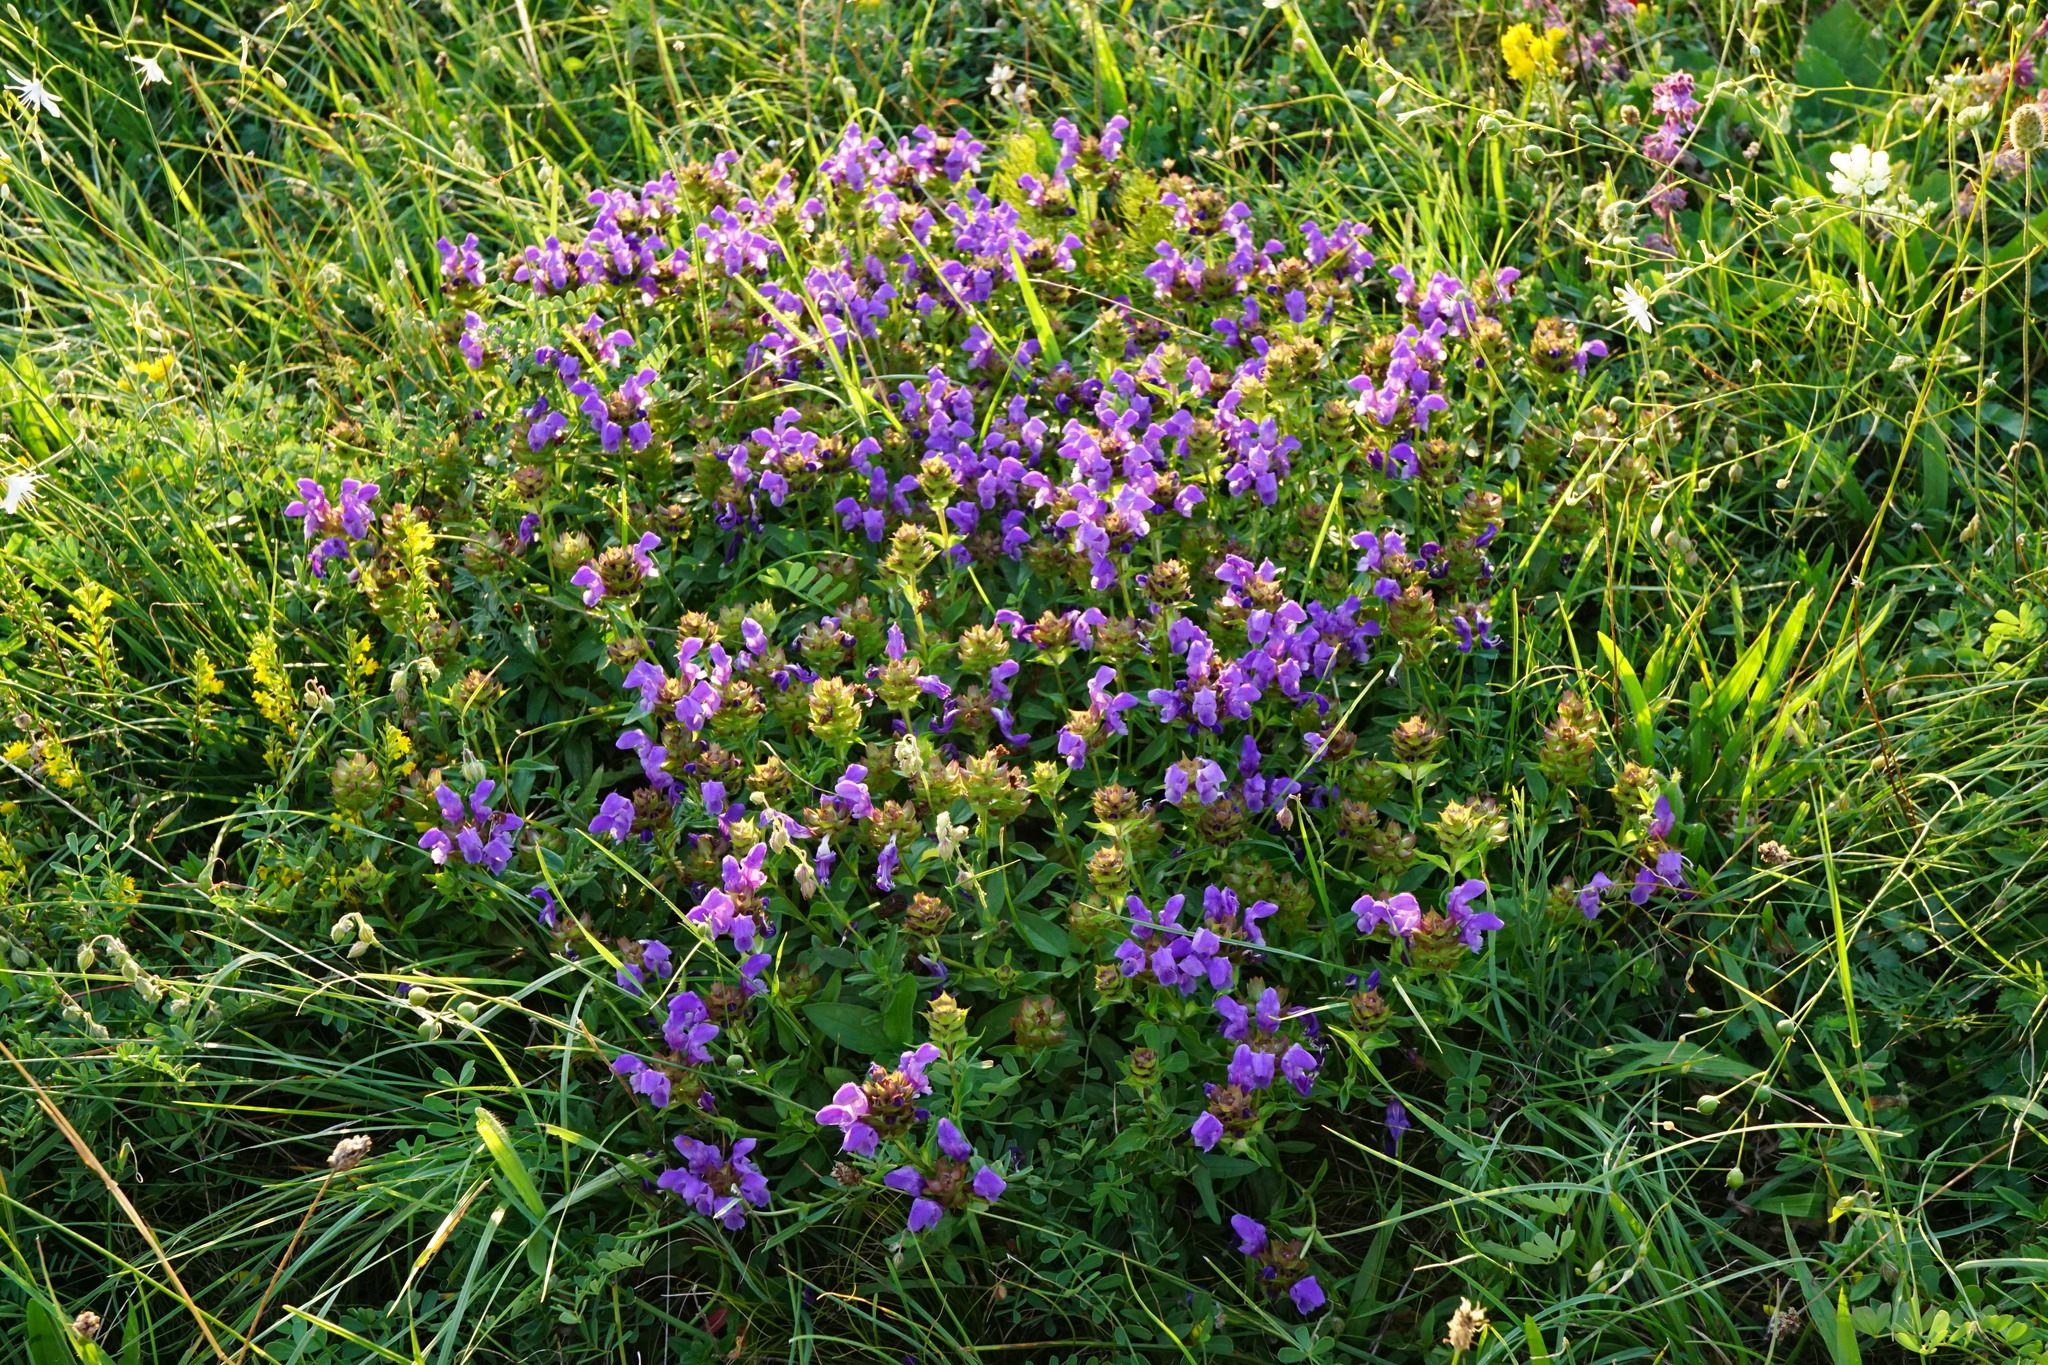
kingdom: Plantae
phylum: Tracheophyta
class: Magnoliopsida
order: Lamiales
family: Lamiaceae
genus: Prunella
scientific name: Prunella grandiflora
